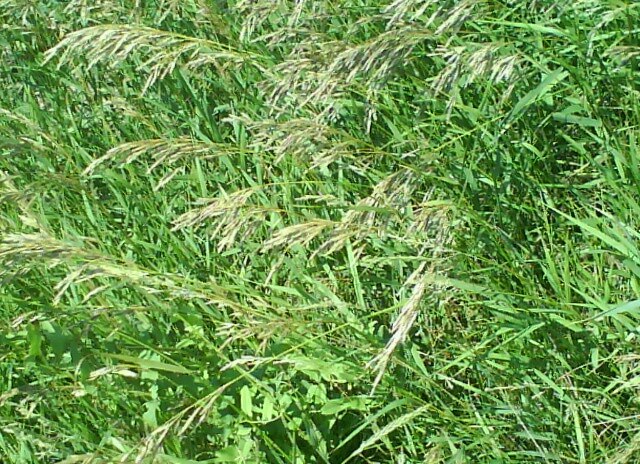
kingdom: Plantae
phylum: Tracheophyta
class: Liliopsida
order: Poales
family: Poaceae
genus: Bromus
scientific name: Bromus inermis
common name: Smooth brome
